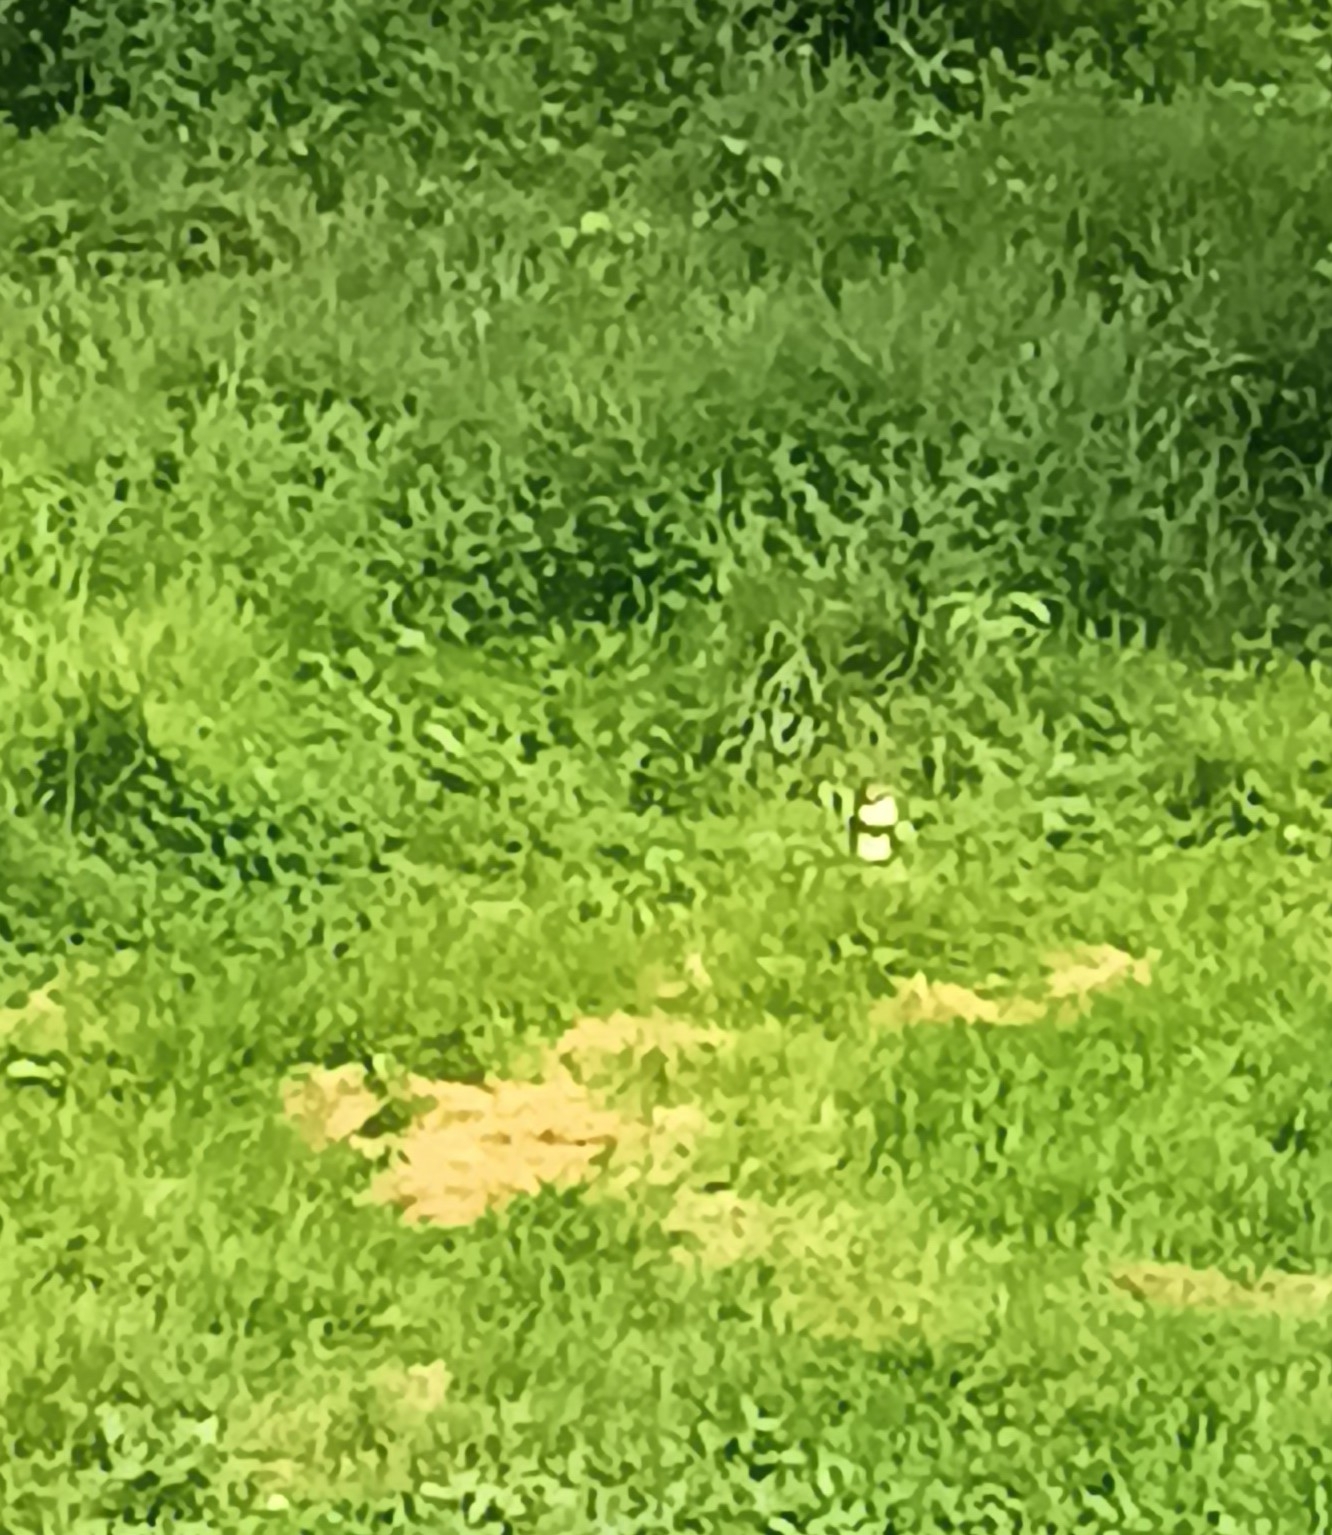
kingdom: Animalia
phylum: Chordata
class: Mammalia
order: Rodentia
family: Sciuridae
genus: Sciurus
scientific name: Sciurus carolinensis
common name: Eastern gray squirrel
